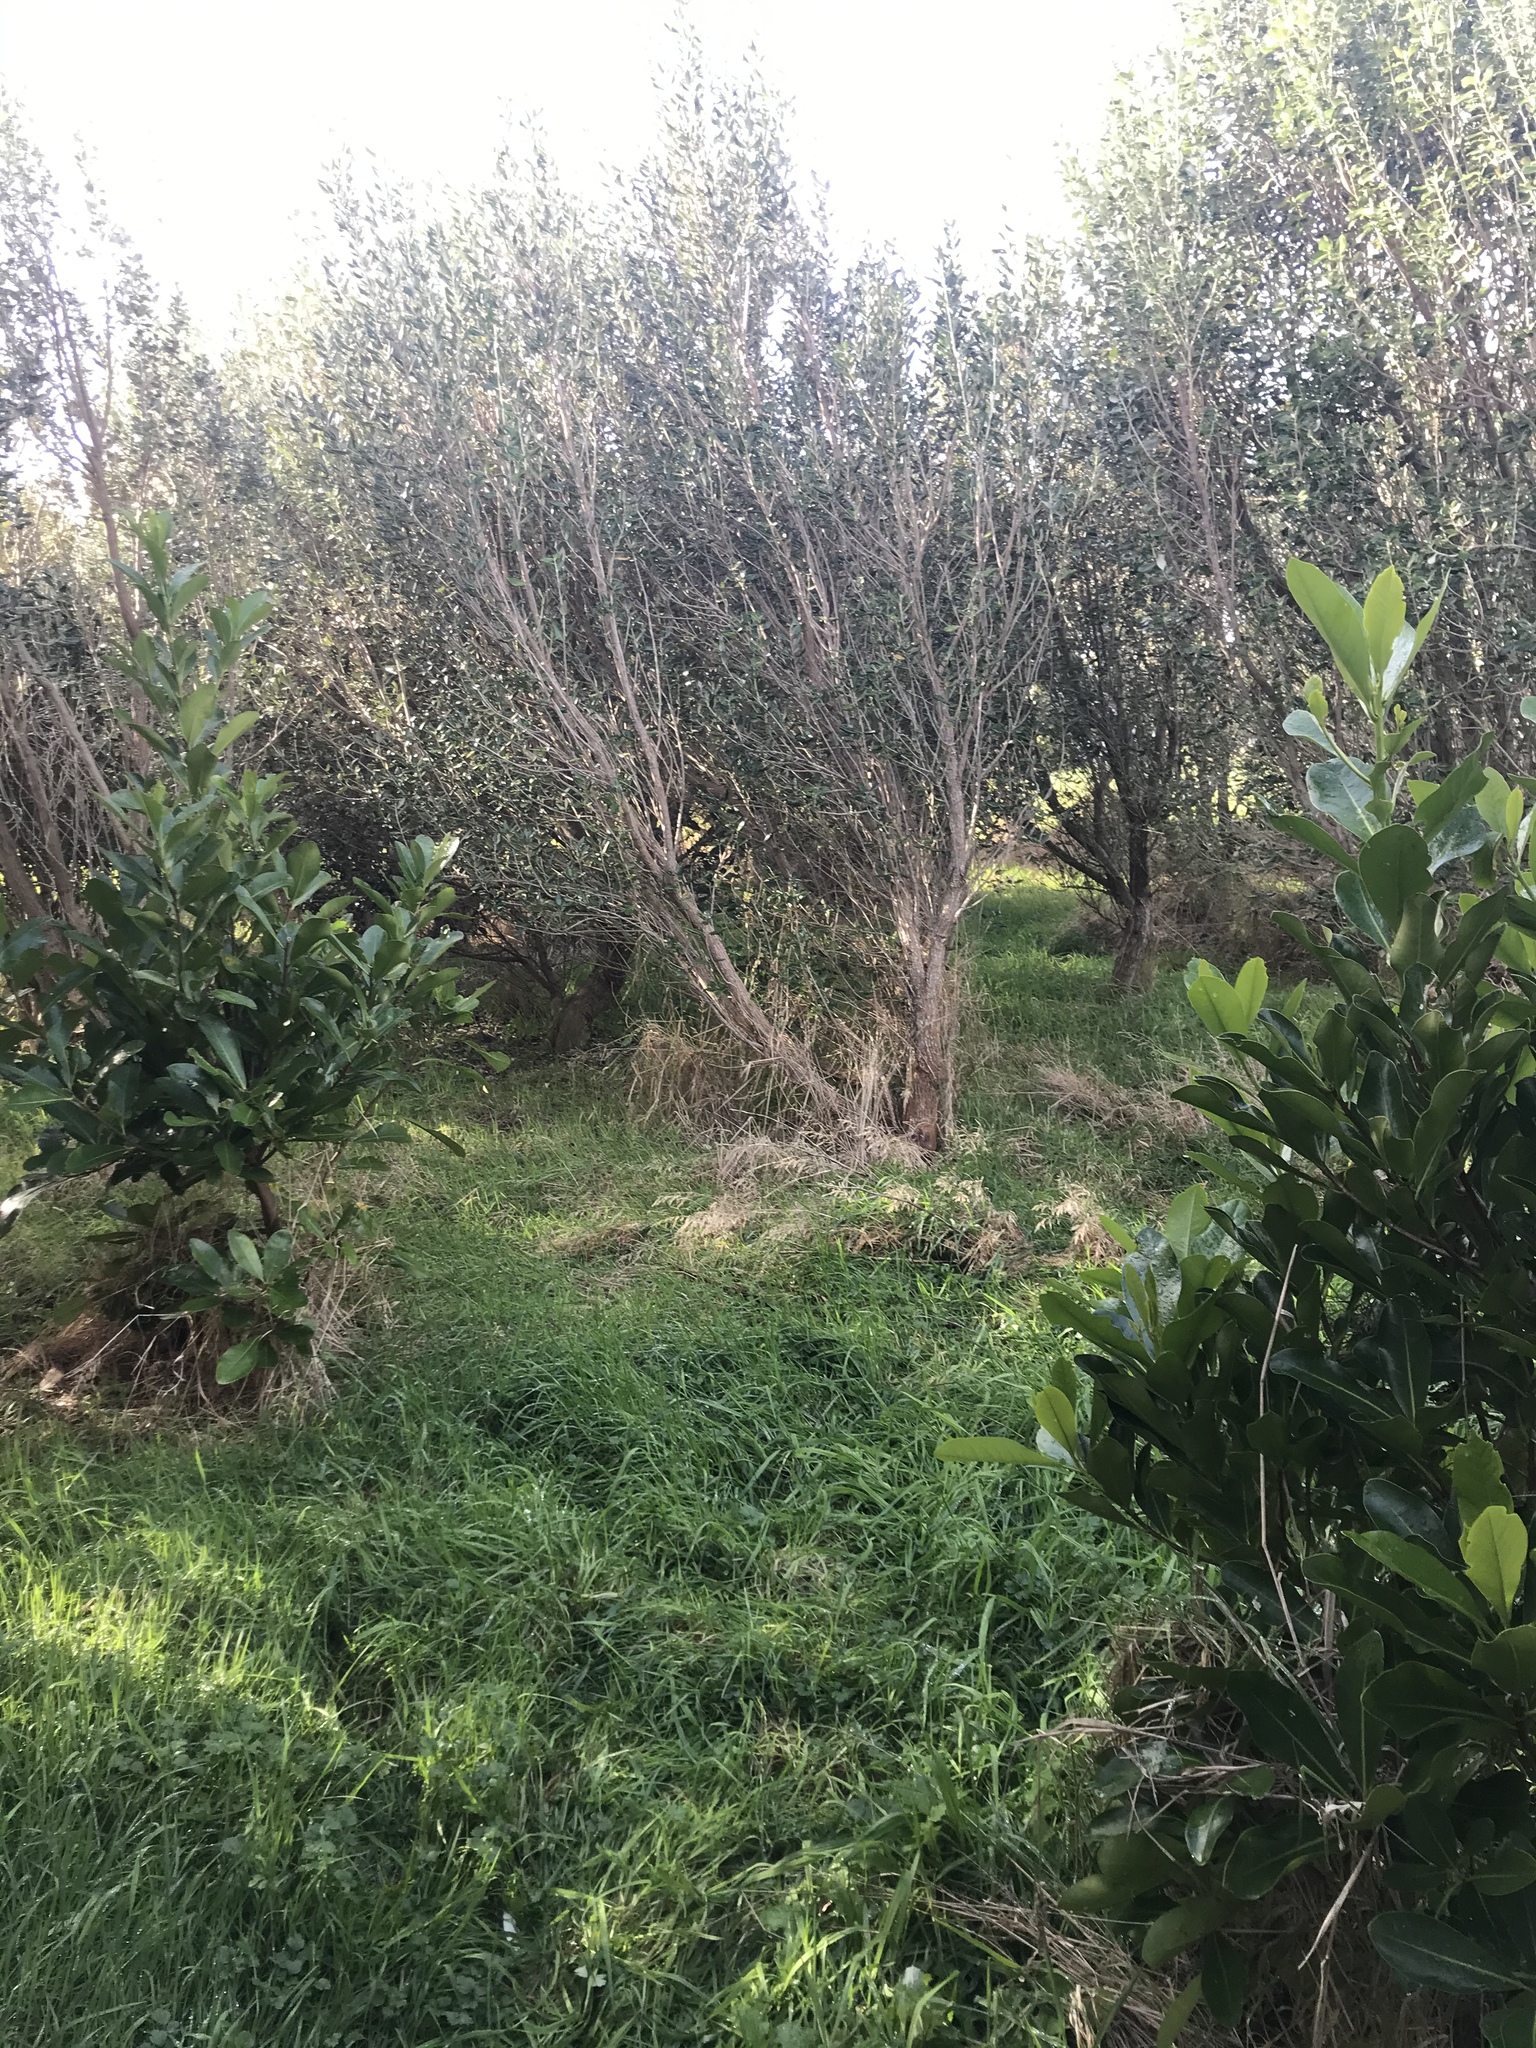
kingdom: Plantae
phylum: Tracheophyta
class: Magnoliopsida
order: Cucurbitales
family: Corynocarpaceae
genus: Corynocarpus
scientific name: Corynocarpus laevigatus
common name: New zealand laurel
